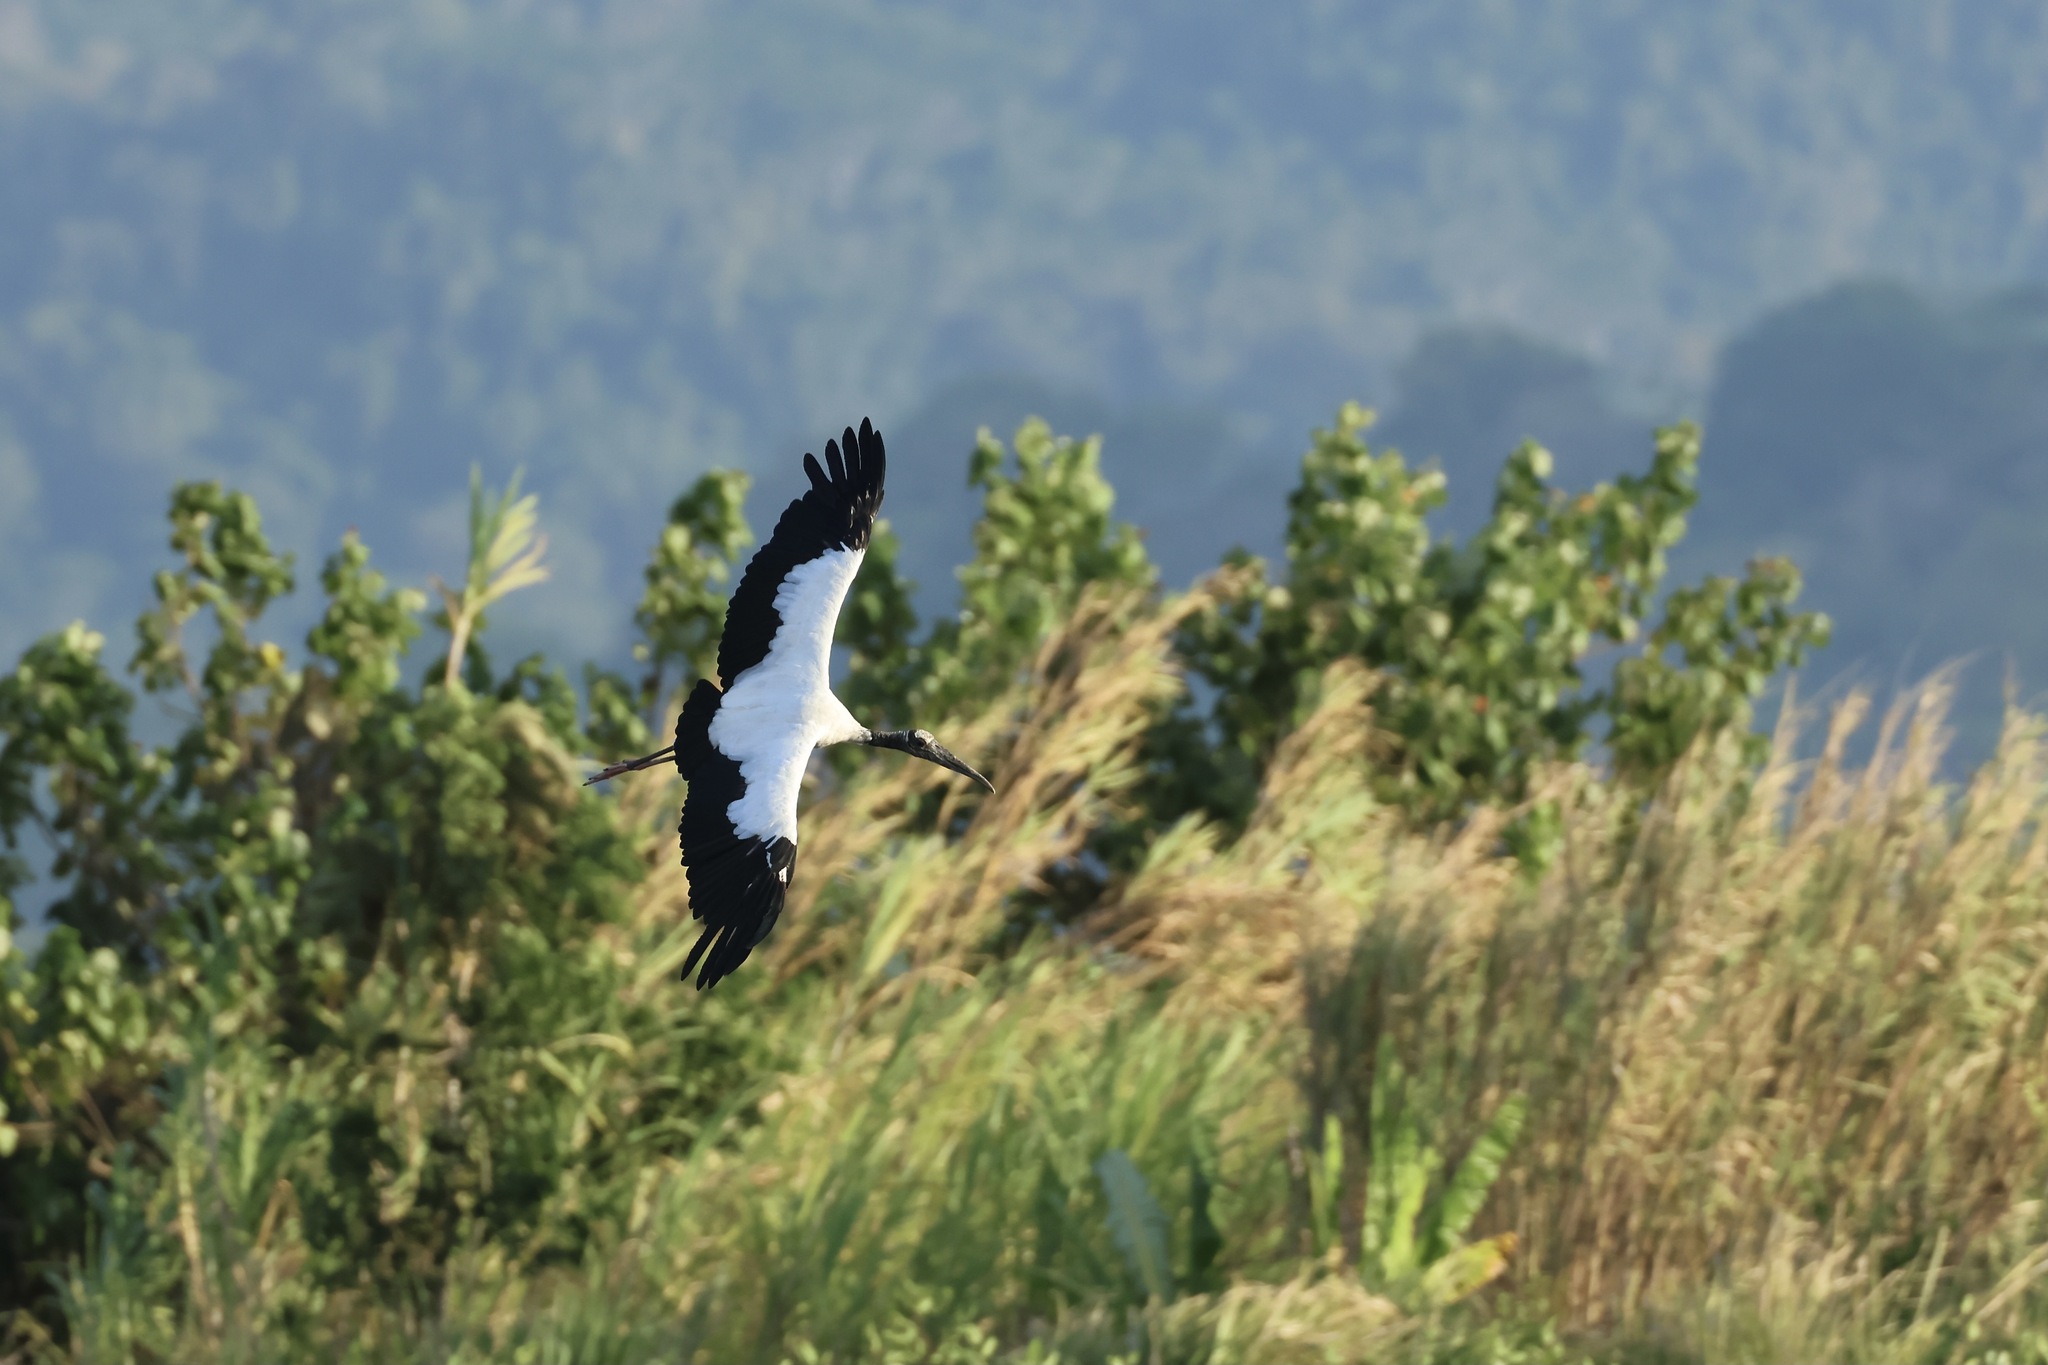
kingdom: Animalia
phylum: Chordata
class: Aves
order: Ciconiiformes
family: Ciconiidae
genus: Mycteria
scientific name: Mycteria americana
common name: Wood stork
